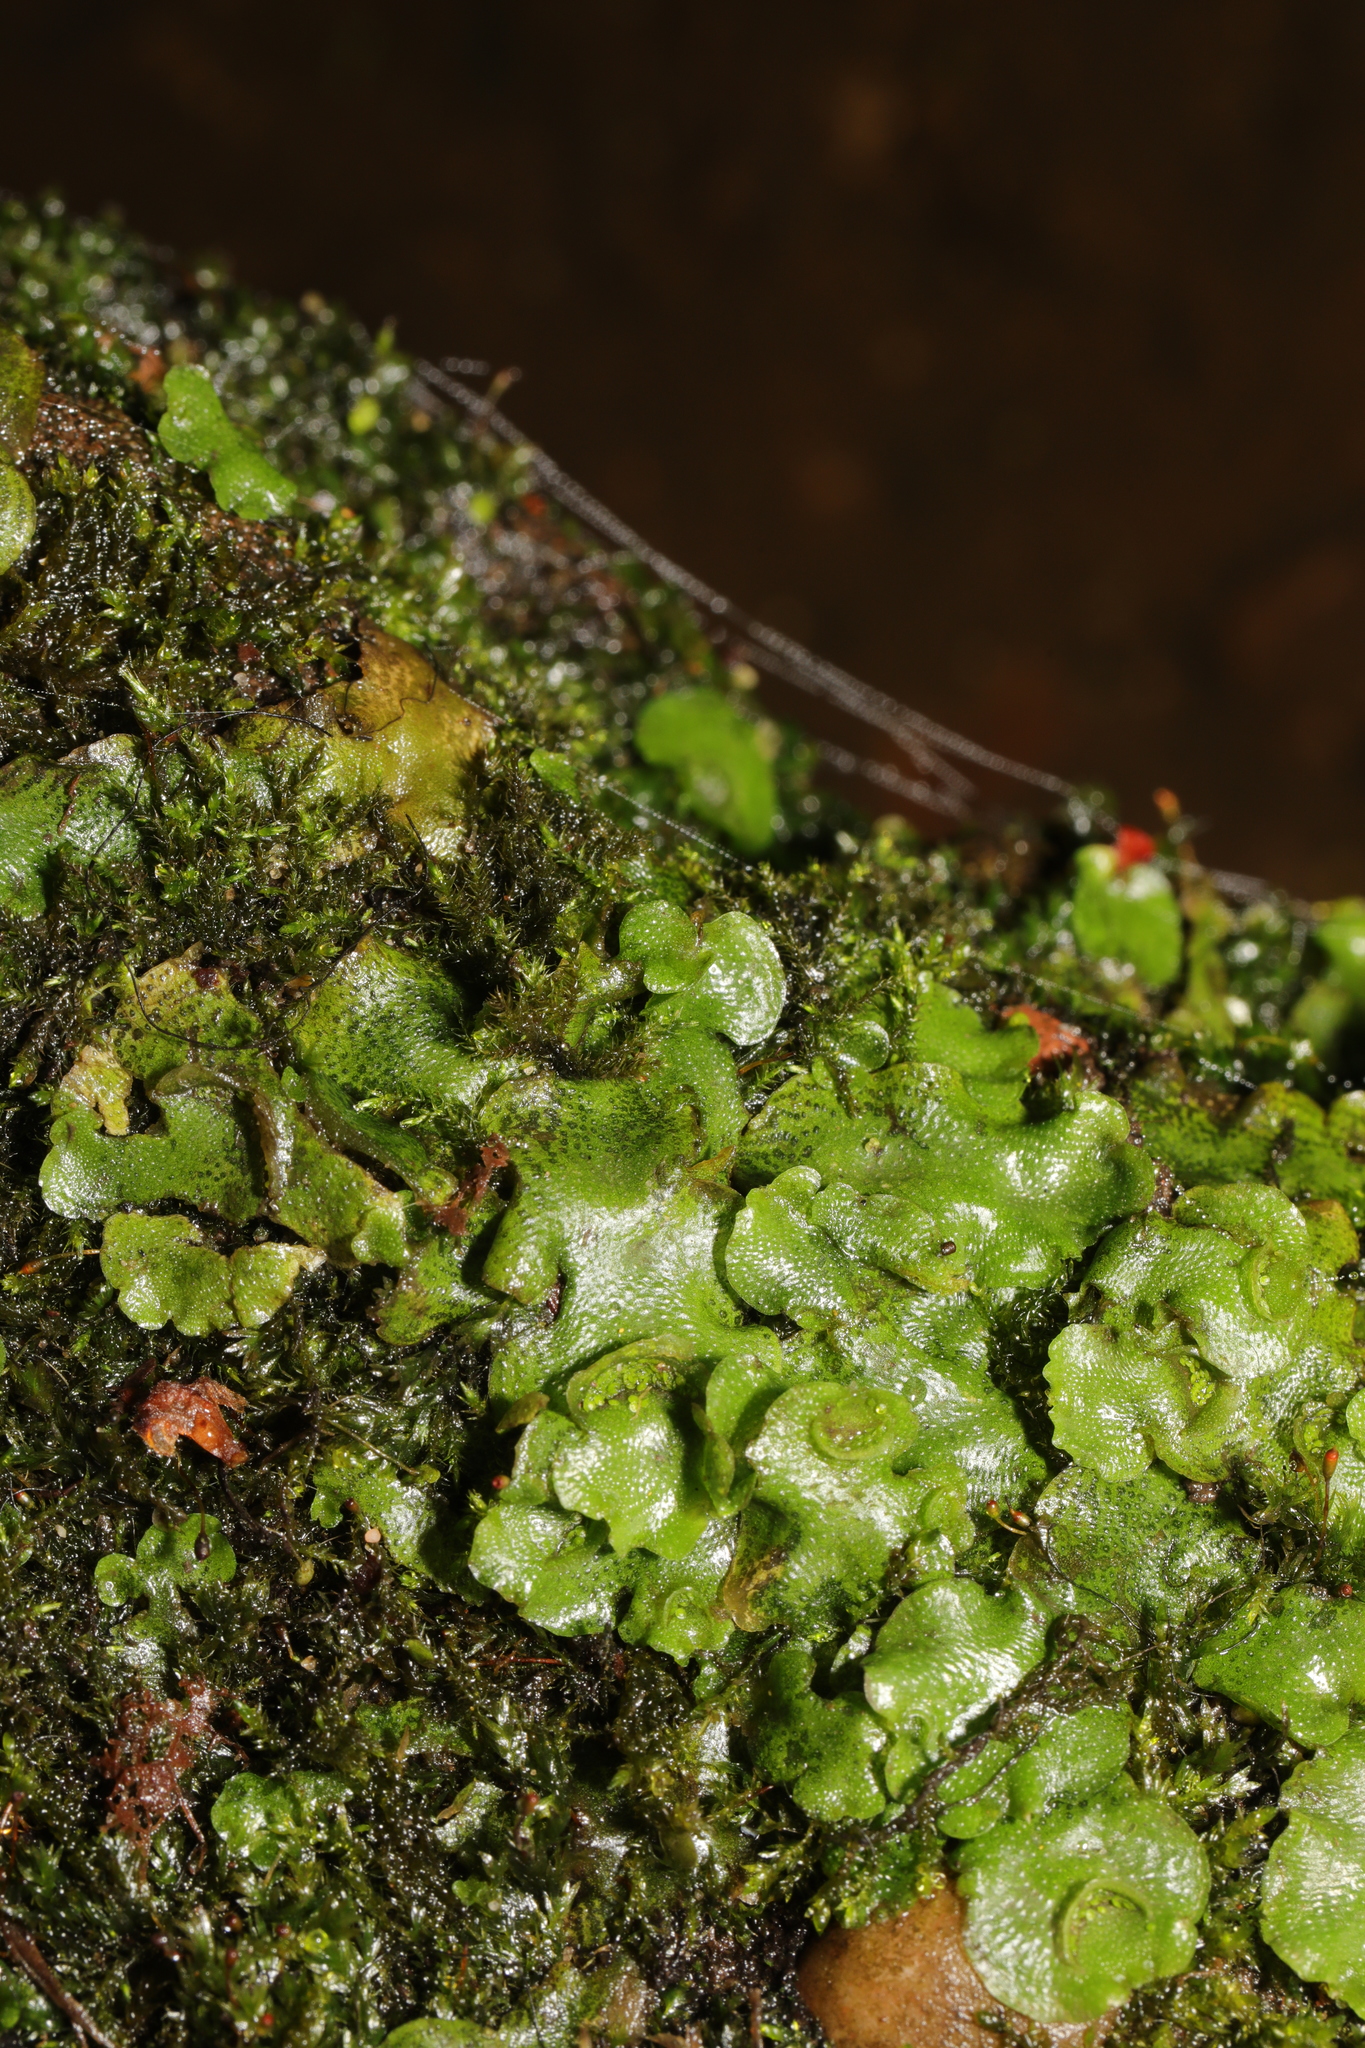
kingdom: Plantae
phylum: Marchantiophyta
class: Marchantiopsida
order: Lunulariales
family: Lunulariaceae
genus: Lunularia
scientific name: Lunularia cruciata
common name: Crescent-cup liverwort
